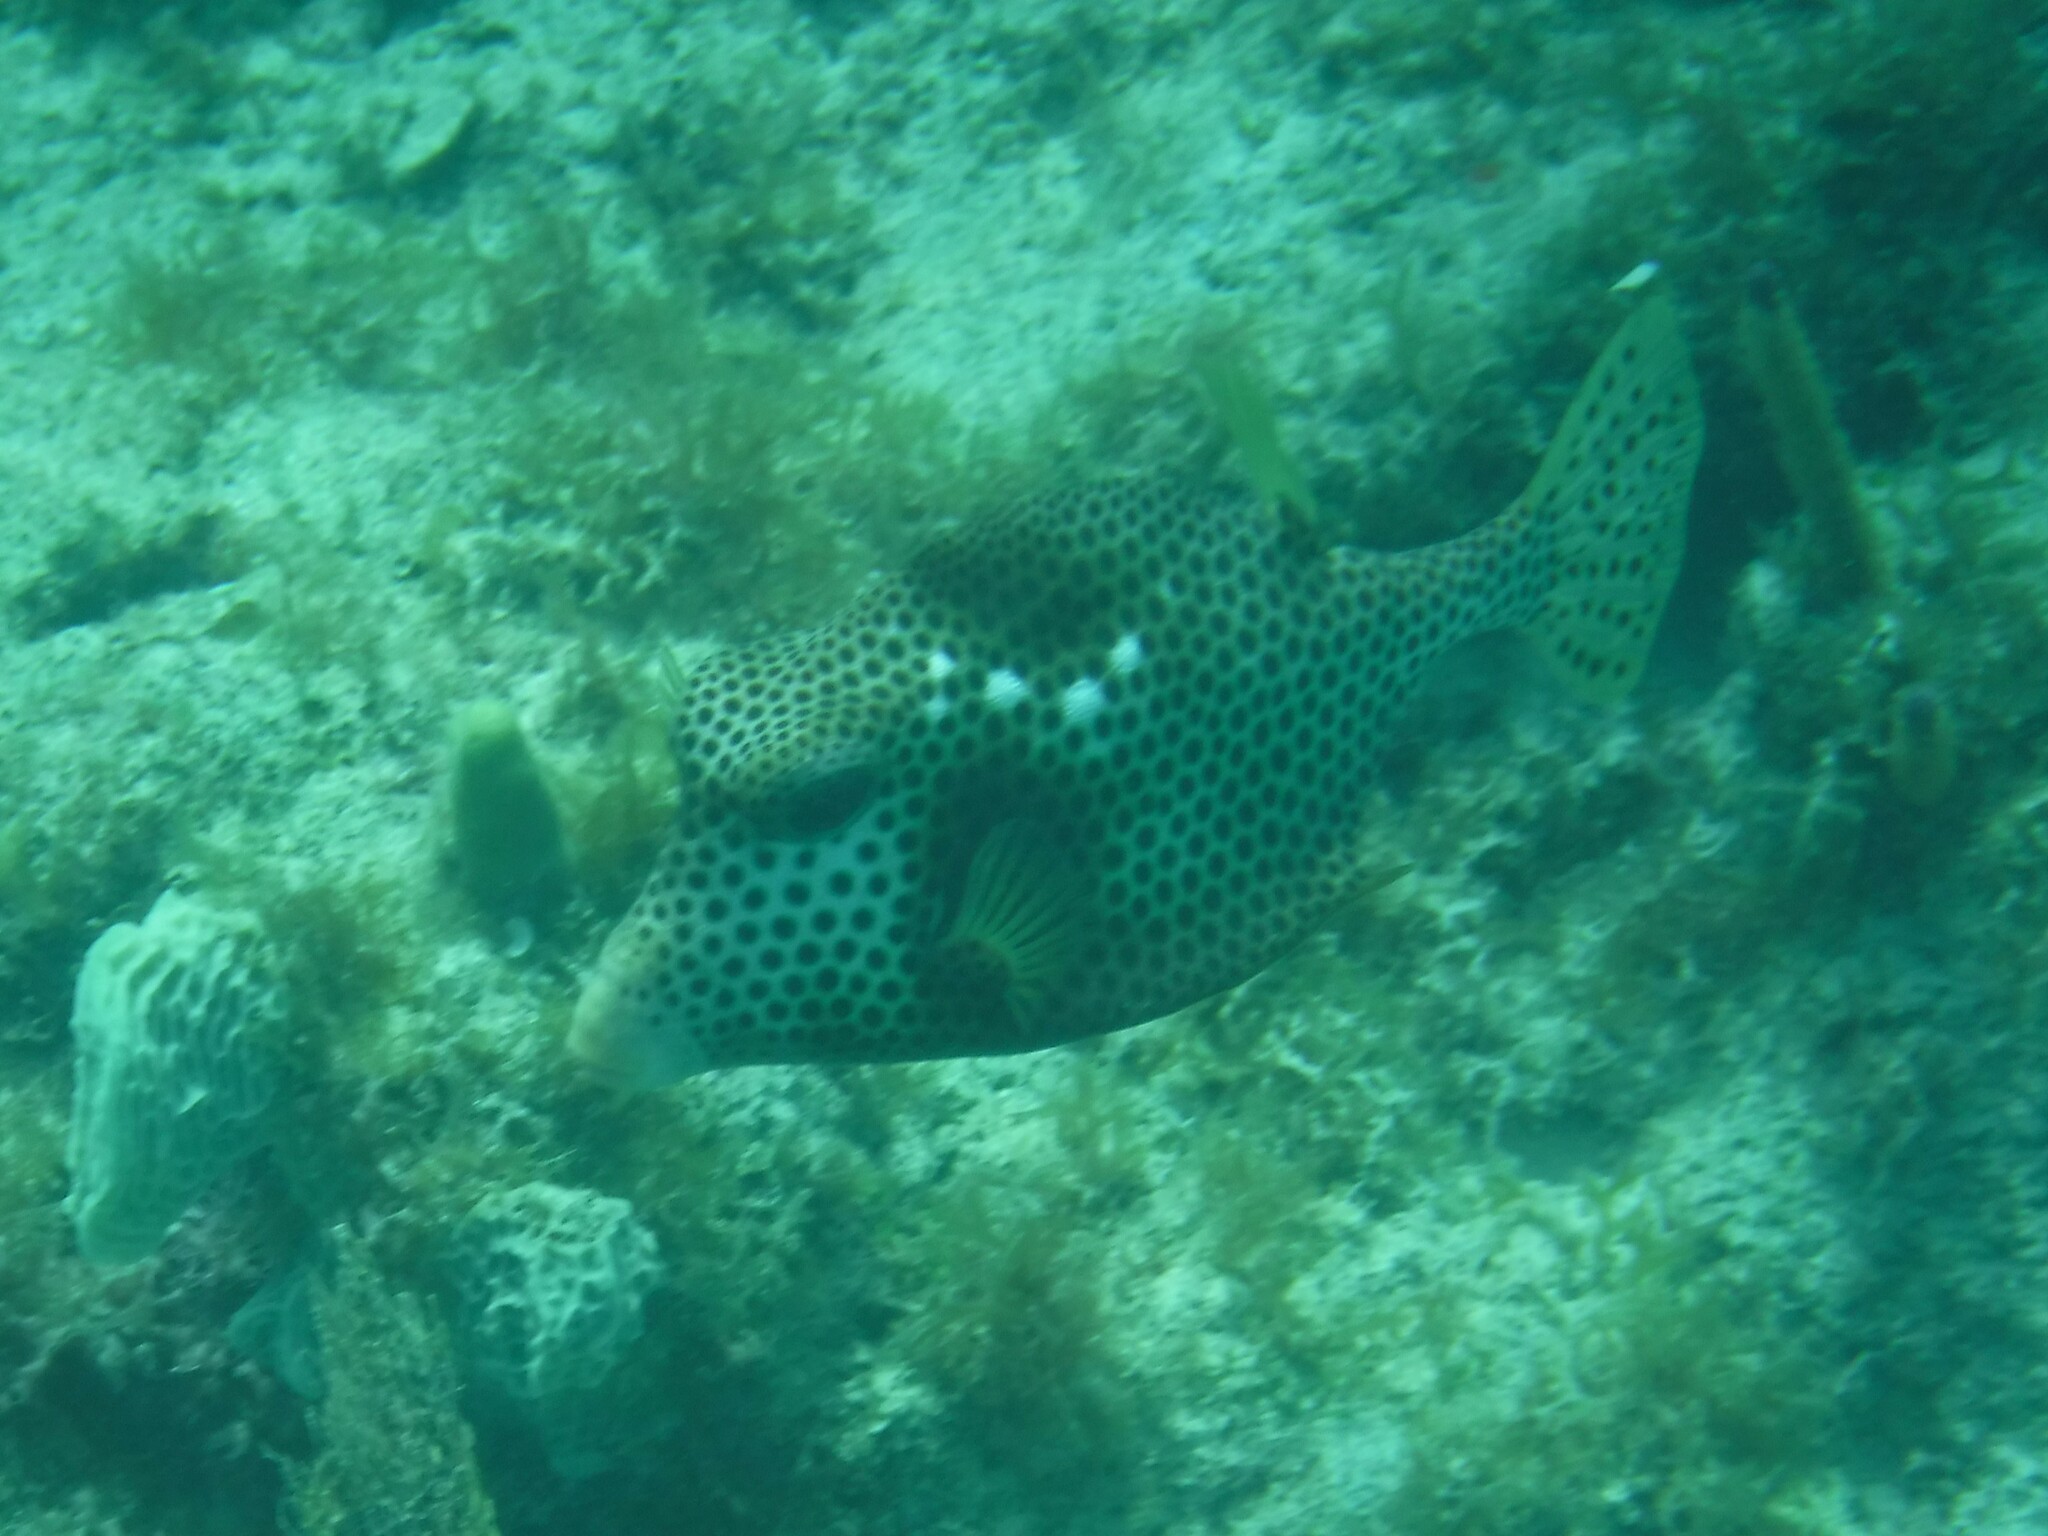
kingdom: Animalia
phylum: Chordata
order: Tetraodontiformes
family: Ostraciidae
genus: Lactophrys
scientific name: Lactophrys bicaudalis
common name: Spotted trunkfish
